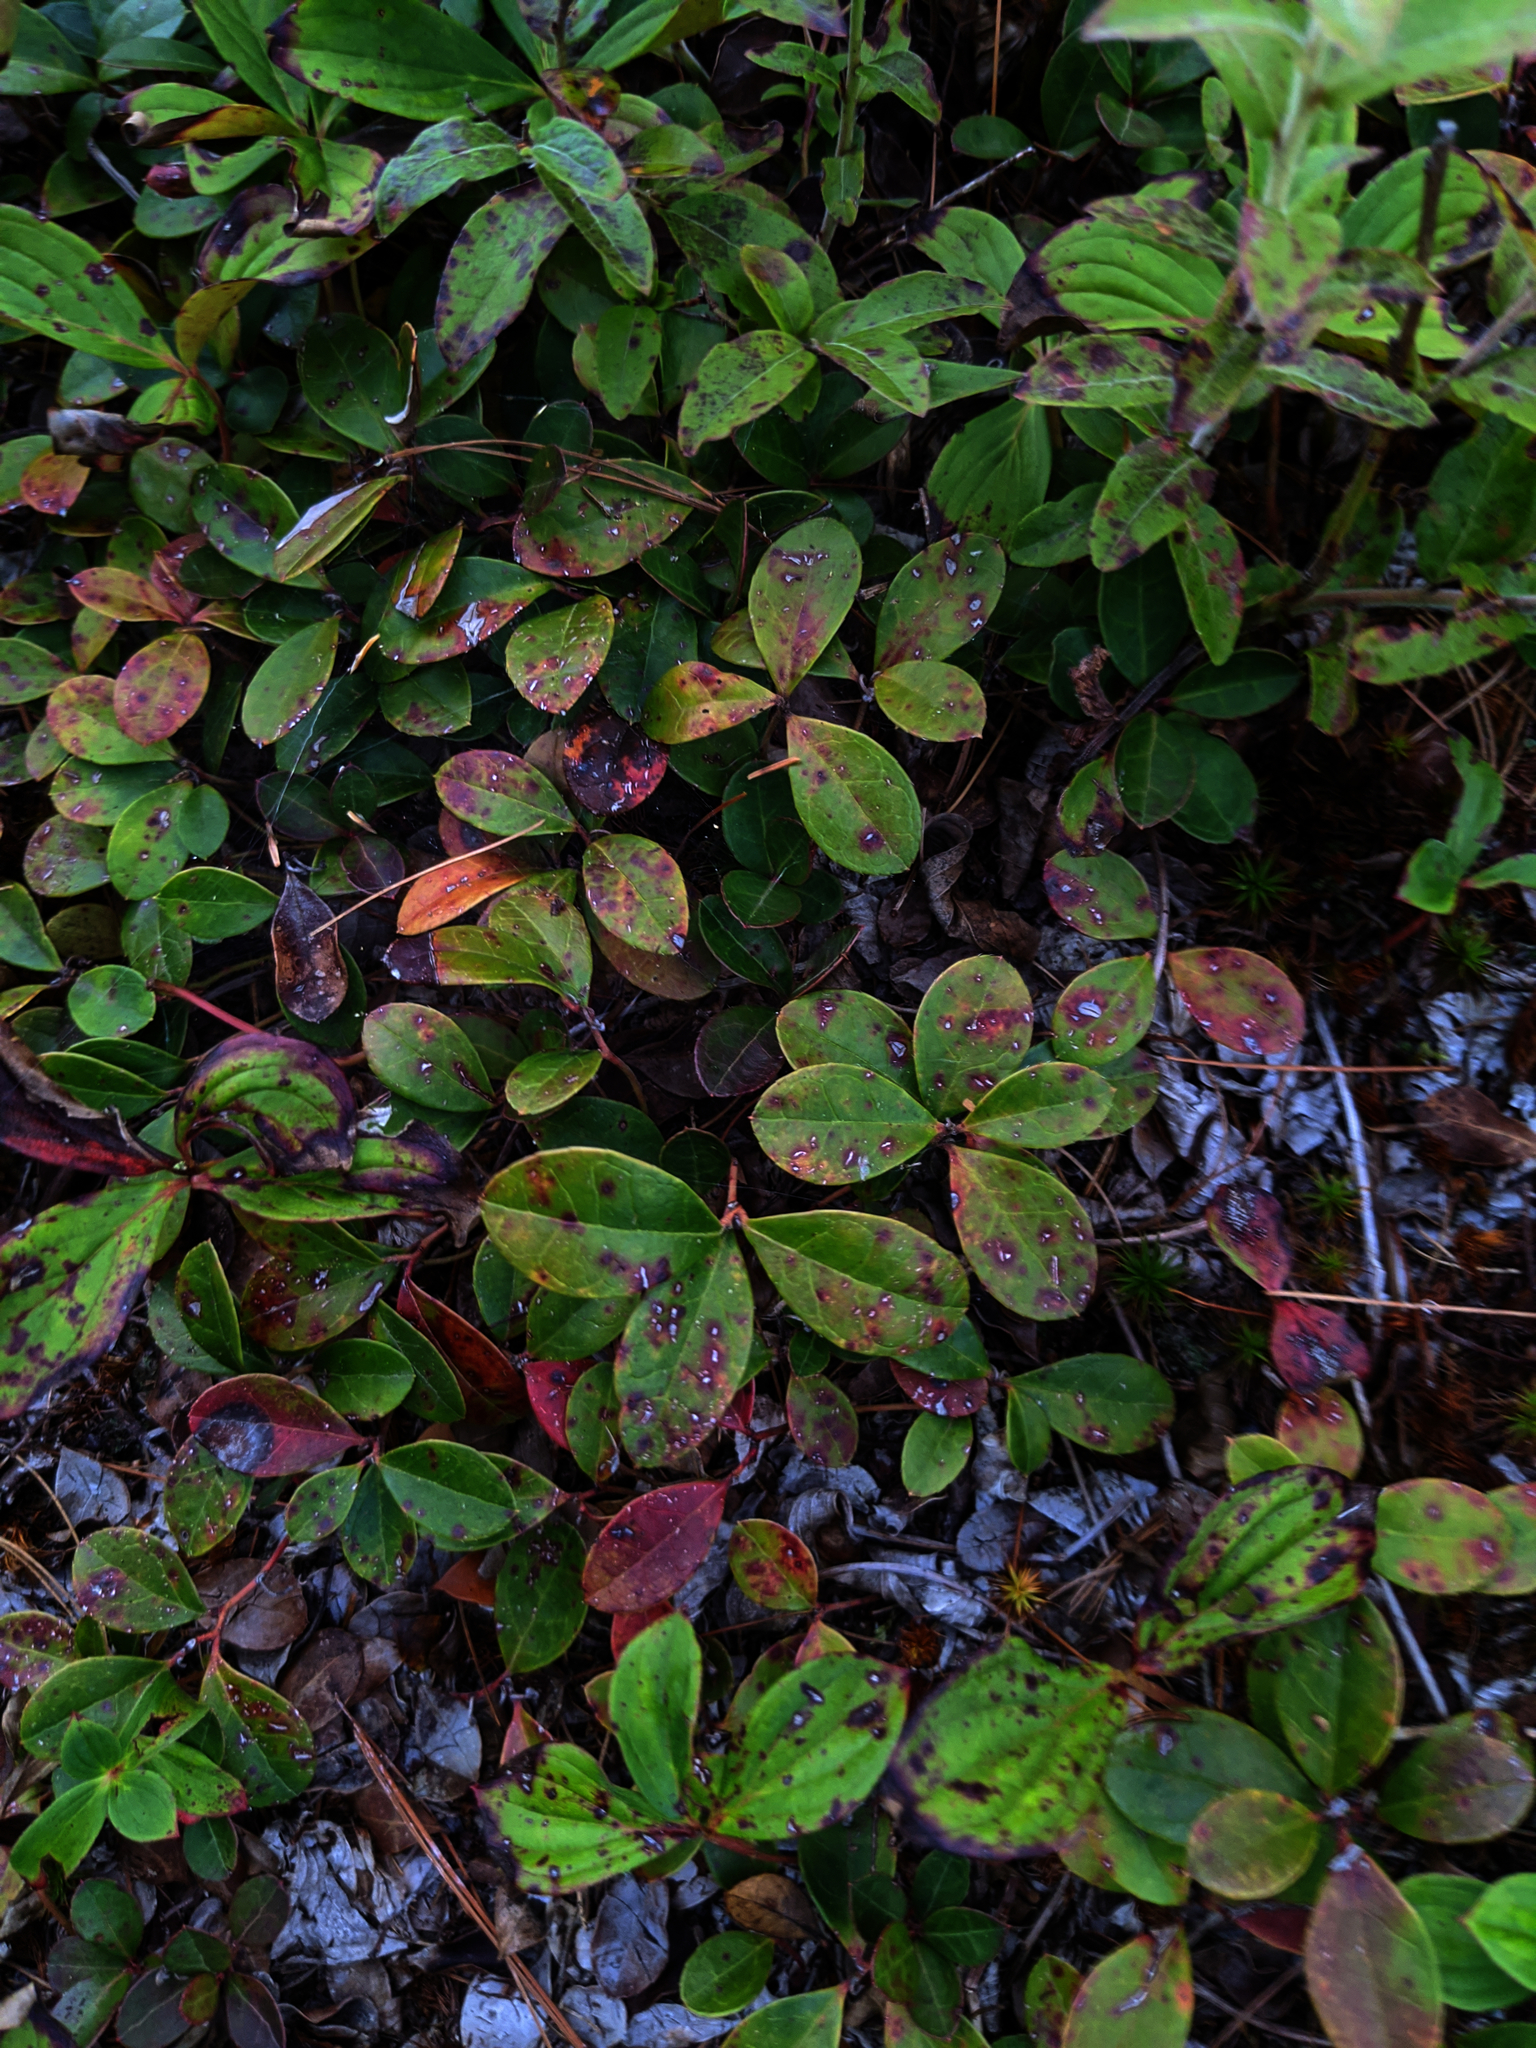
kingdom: Plantae
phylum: Tracheophyta
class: Magnoliopsida
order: Ericales
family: Ericaceae
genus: Gaultheria
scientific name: Gaultheria procumbens
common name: Checkerberry
